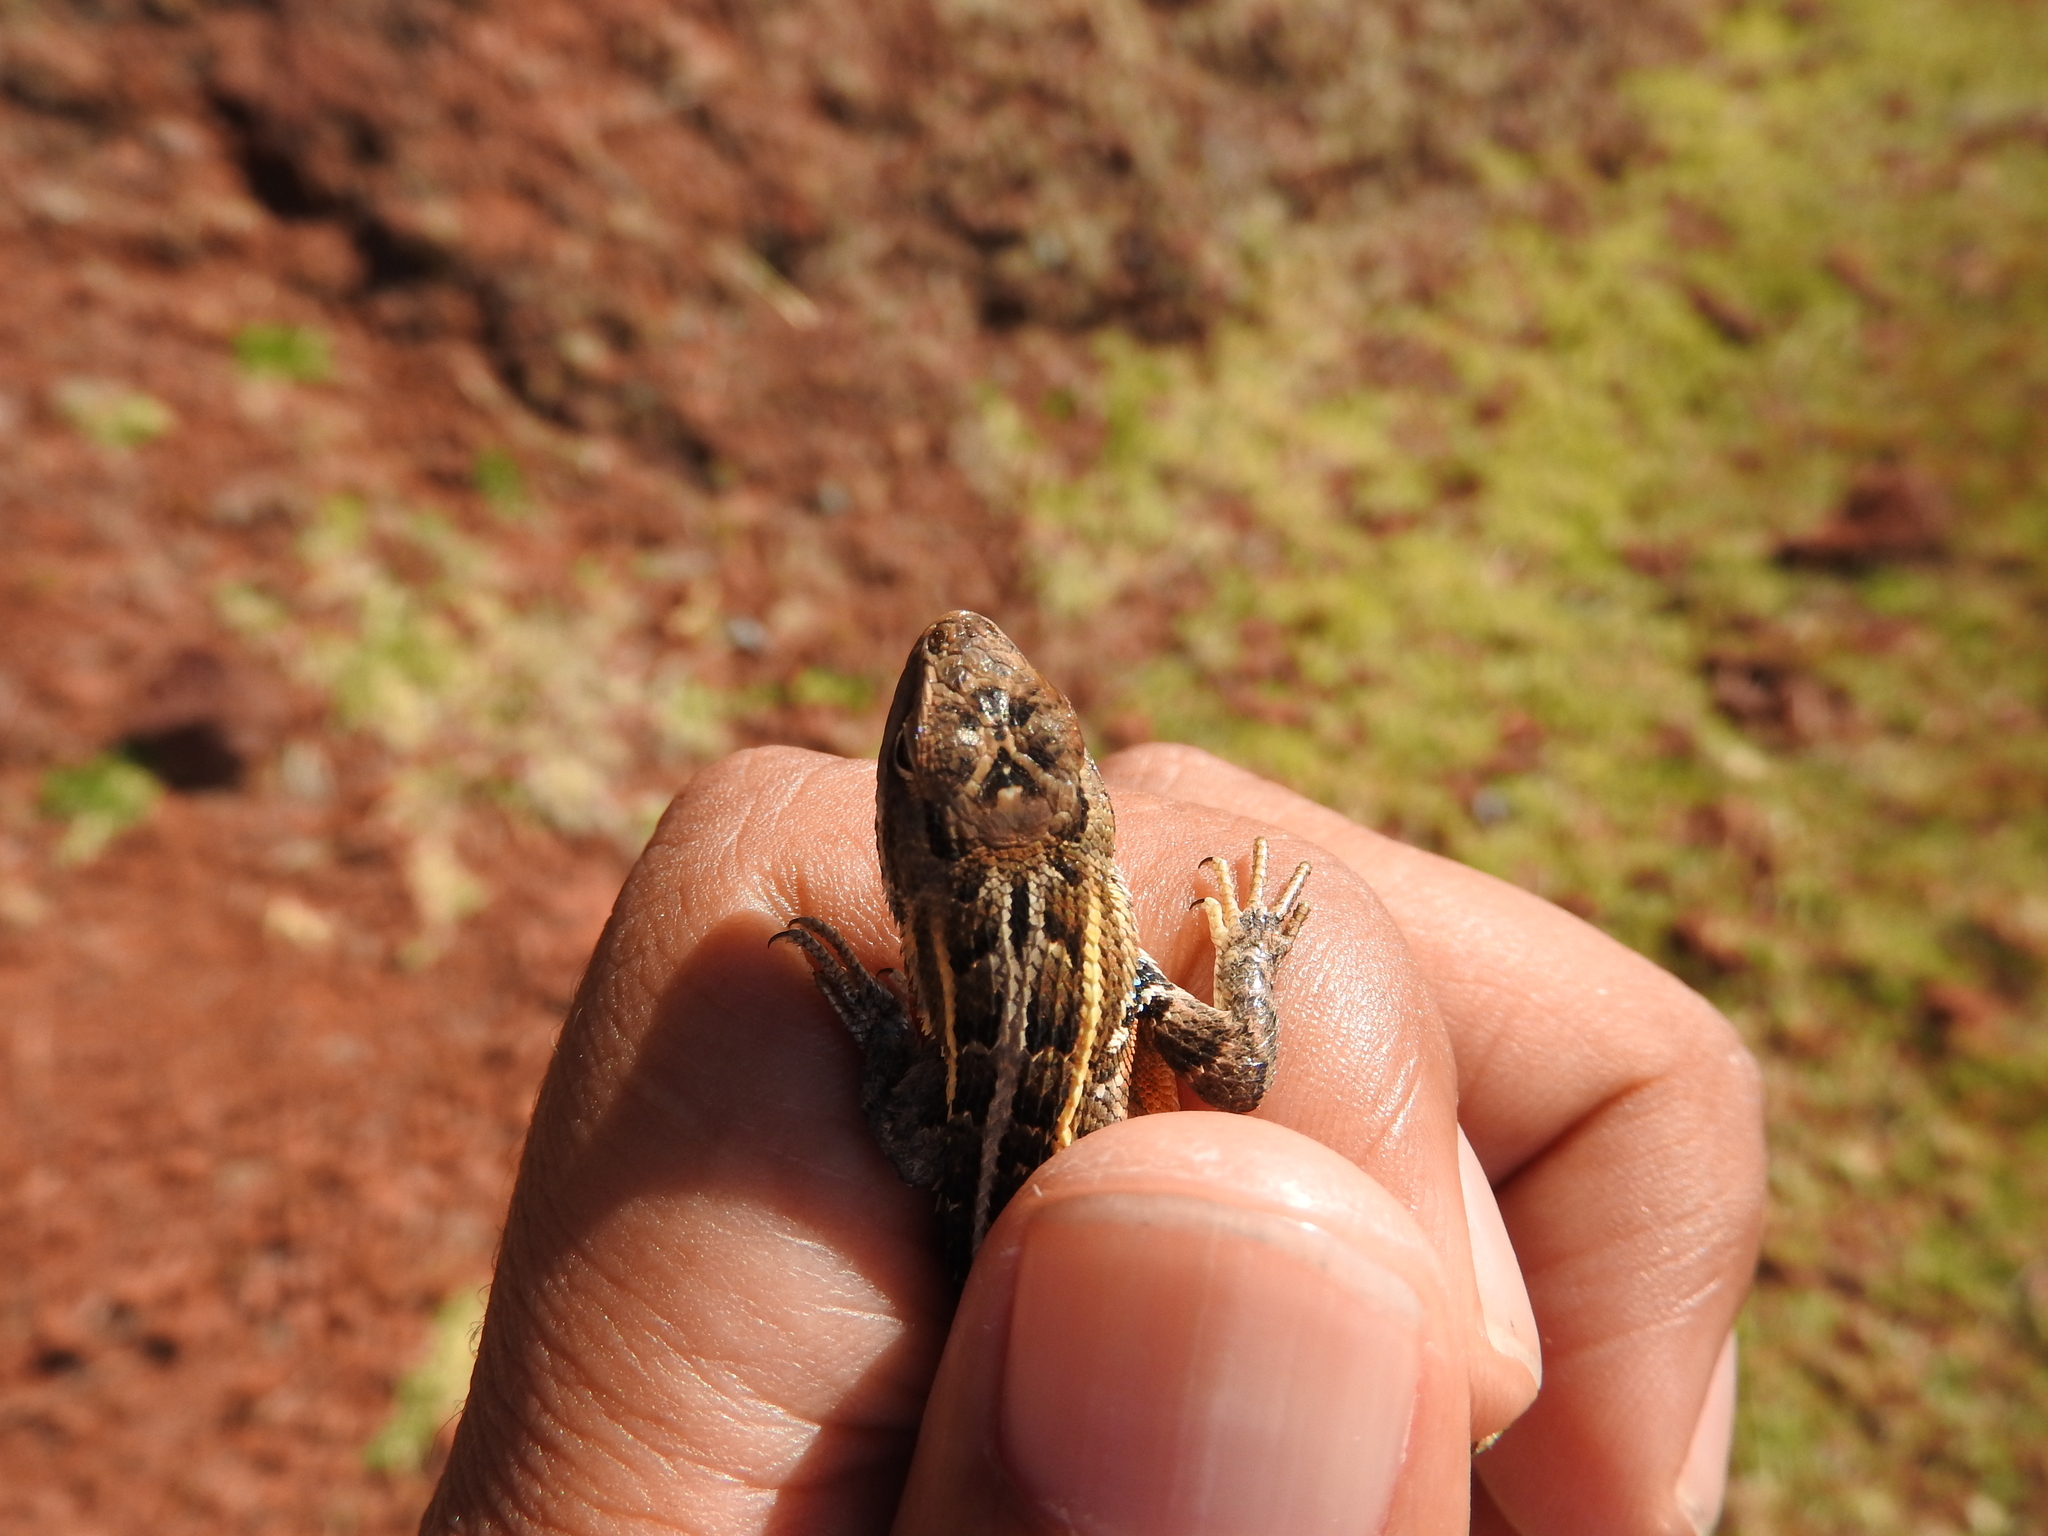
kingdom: Animalia
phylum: Chordata
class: Squamata
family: Phrynosomatidae
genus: Sceloporus
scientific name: Sceloporus subniger
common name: Plateau bunchgrass lizard
